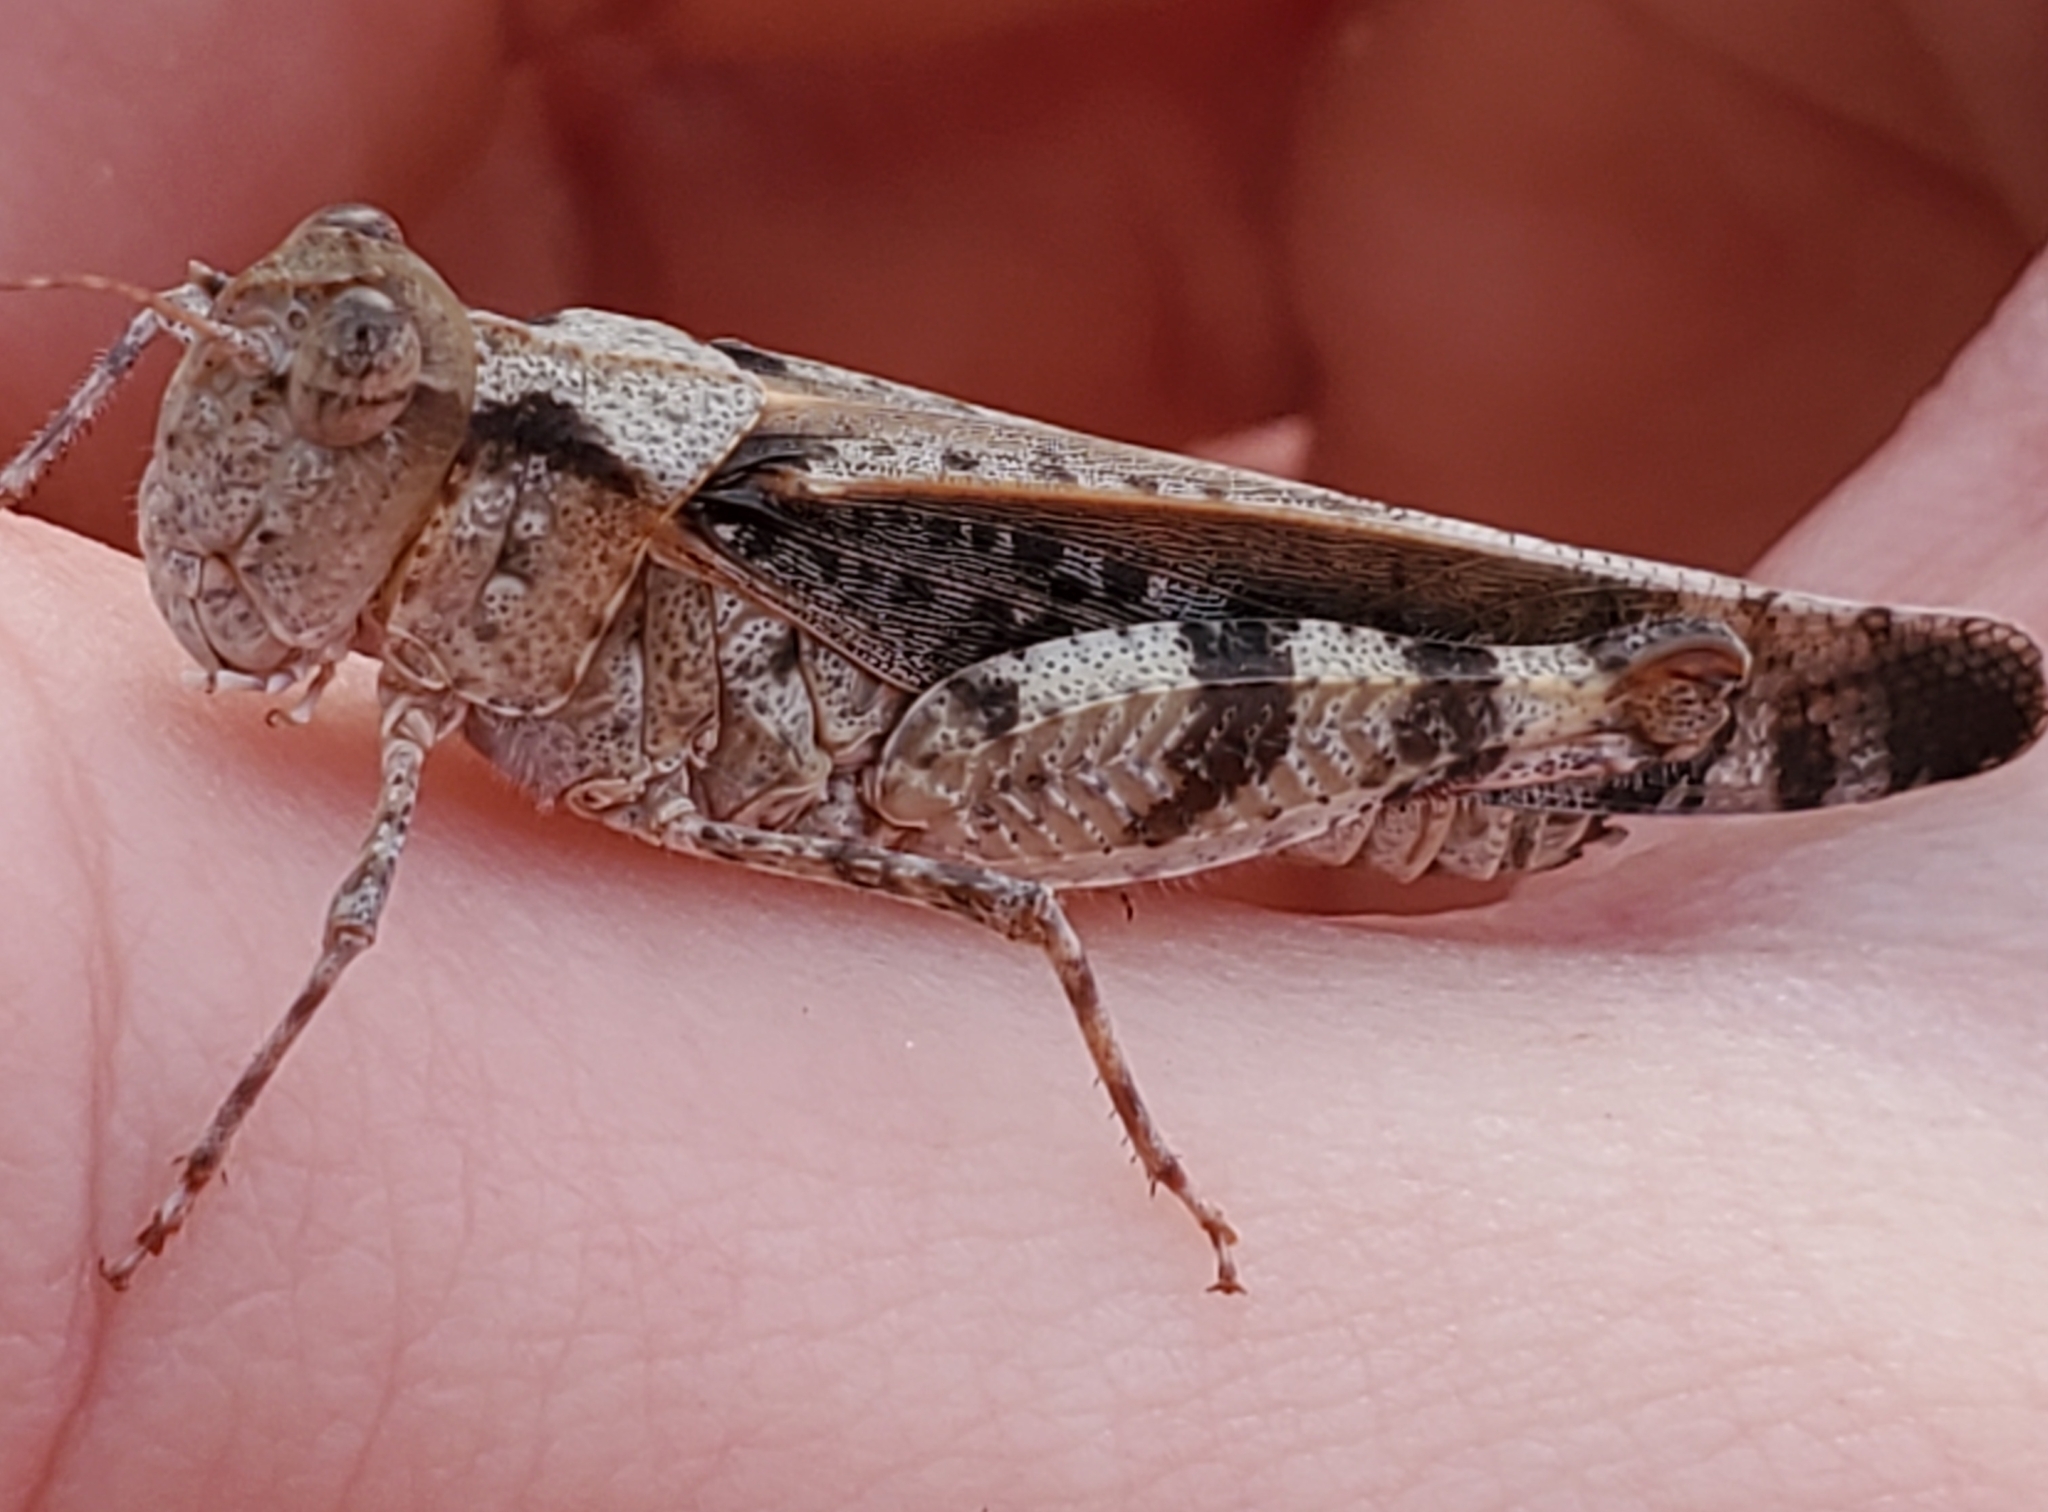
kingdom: Animalia
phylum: Arthropoda
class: Insecta
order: Orthoptera
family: Acrididae
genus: Spharagemon
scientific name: Spharagemon marmoratum
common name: Marbled grasshopper
